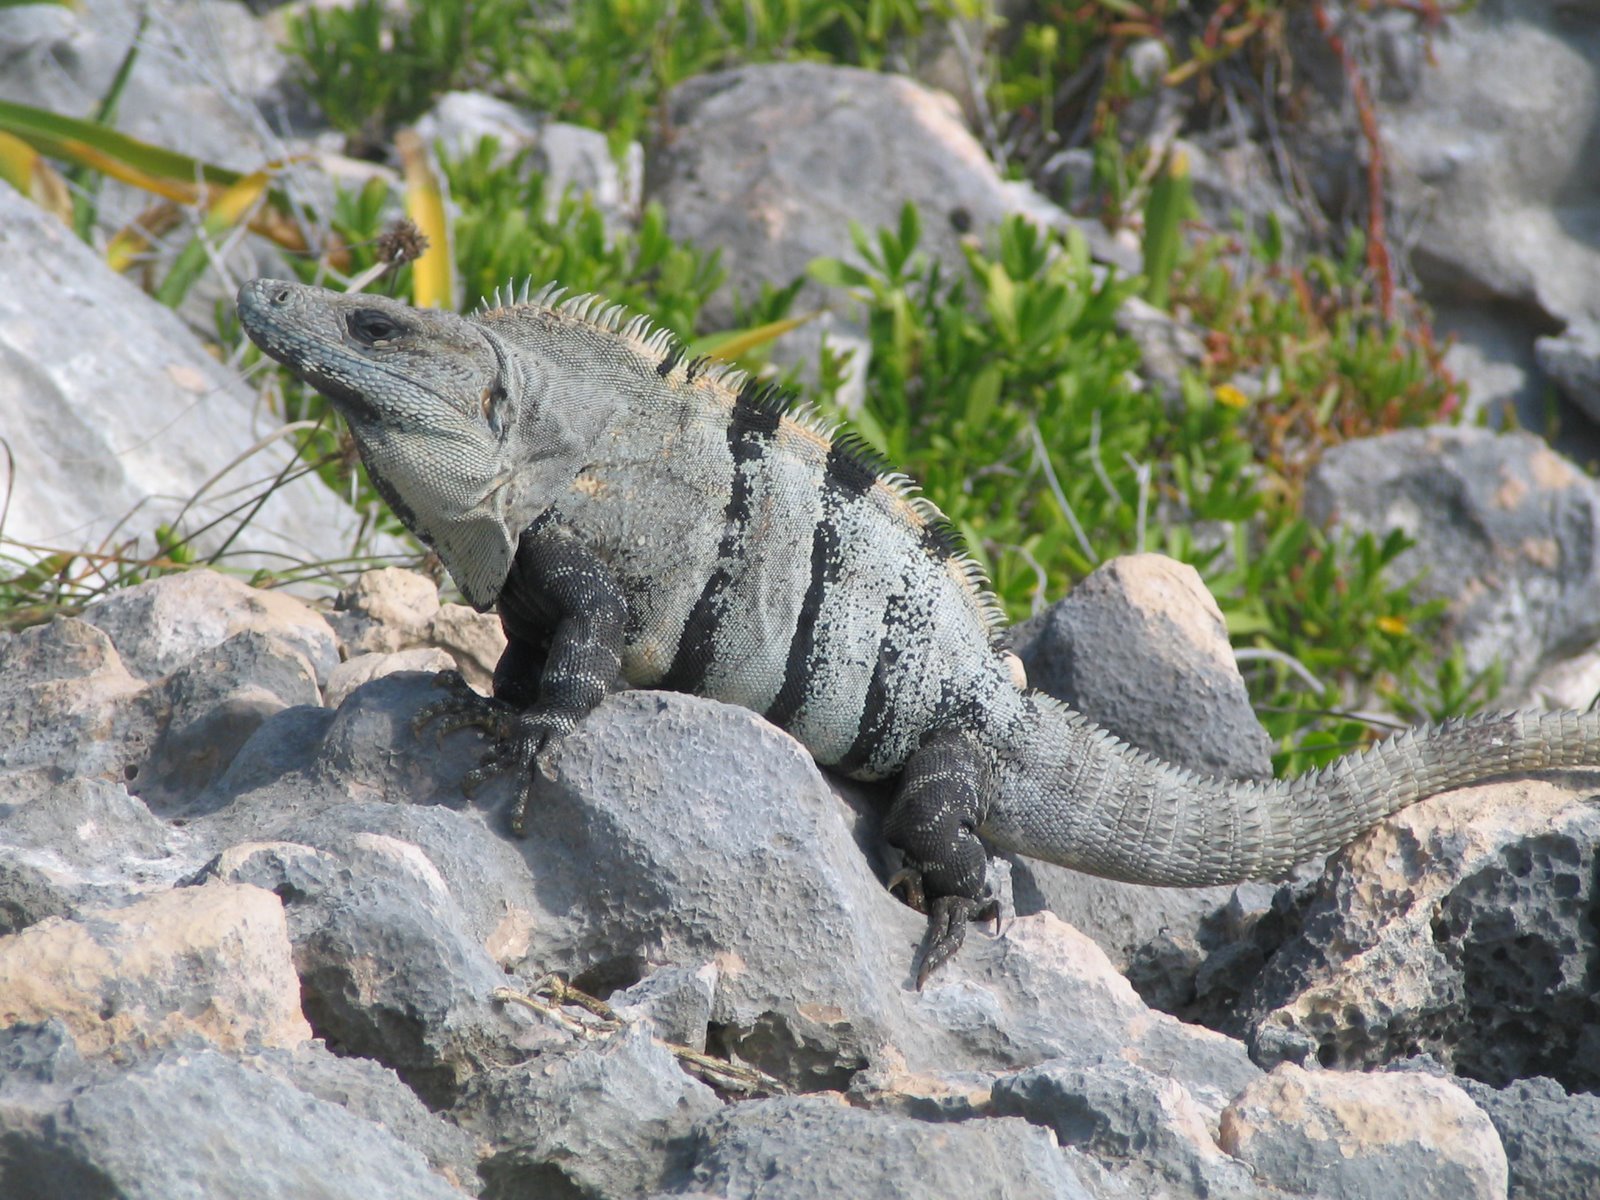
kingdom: Animalia
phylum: Chordata
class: Squamata
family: Iguanidae
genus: Ctenosaura
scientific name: Ctenosaura similis
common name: Black spiny-tailed iguana
